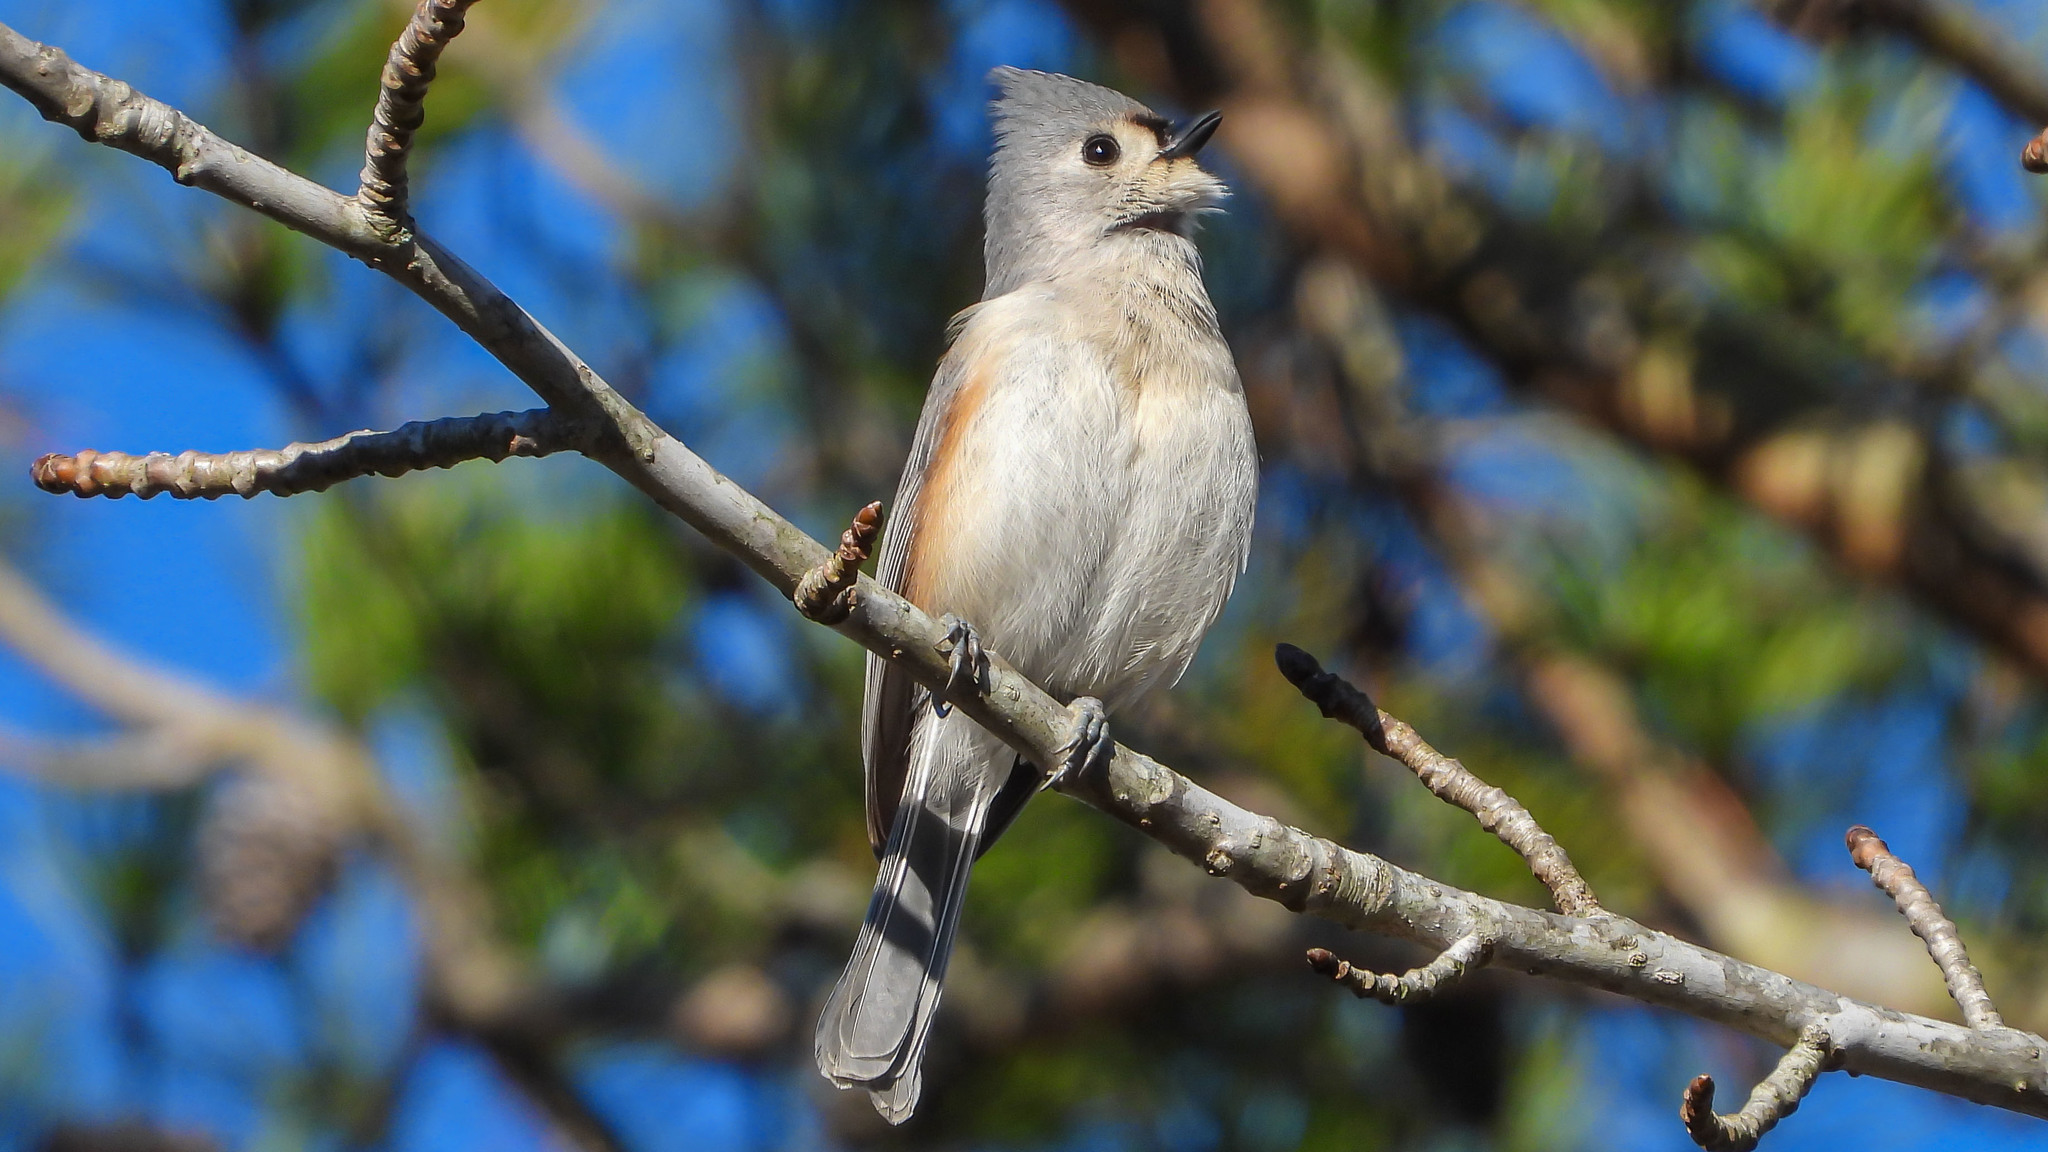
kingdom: Animalia
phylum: Chordata
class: Aves
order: Passeriformes
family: Paridae
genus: Baeolophus
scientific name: Baeolophus bicolor
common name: Tufted titmouse
